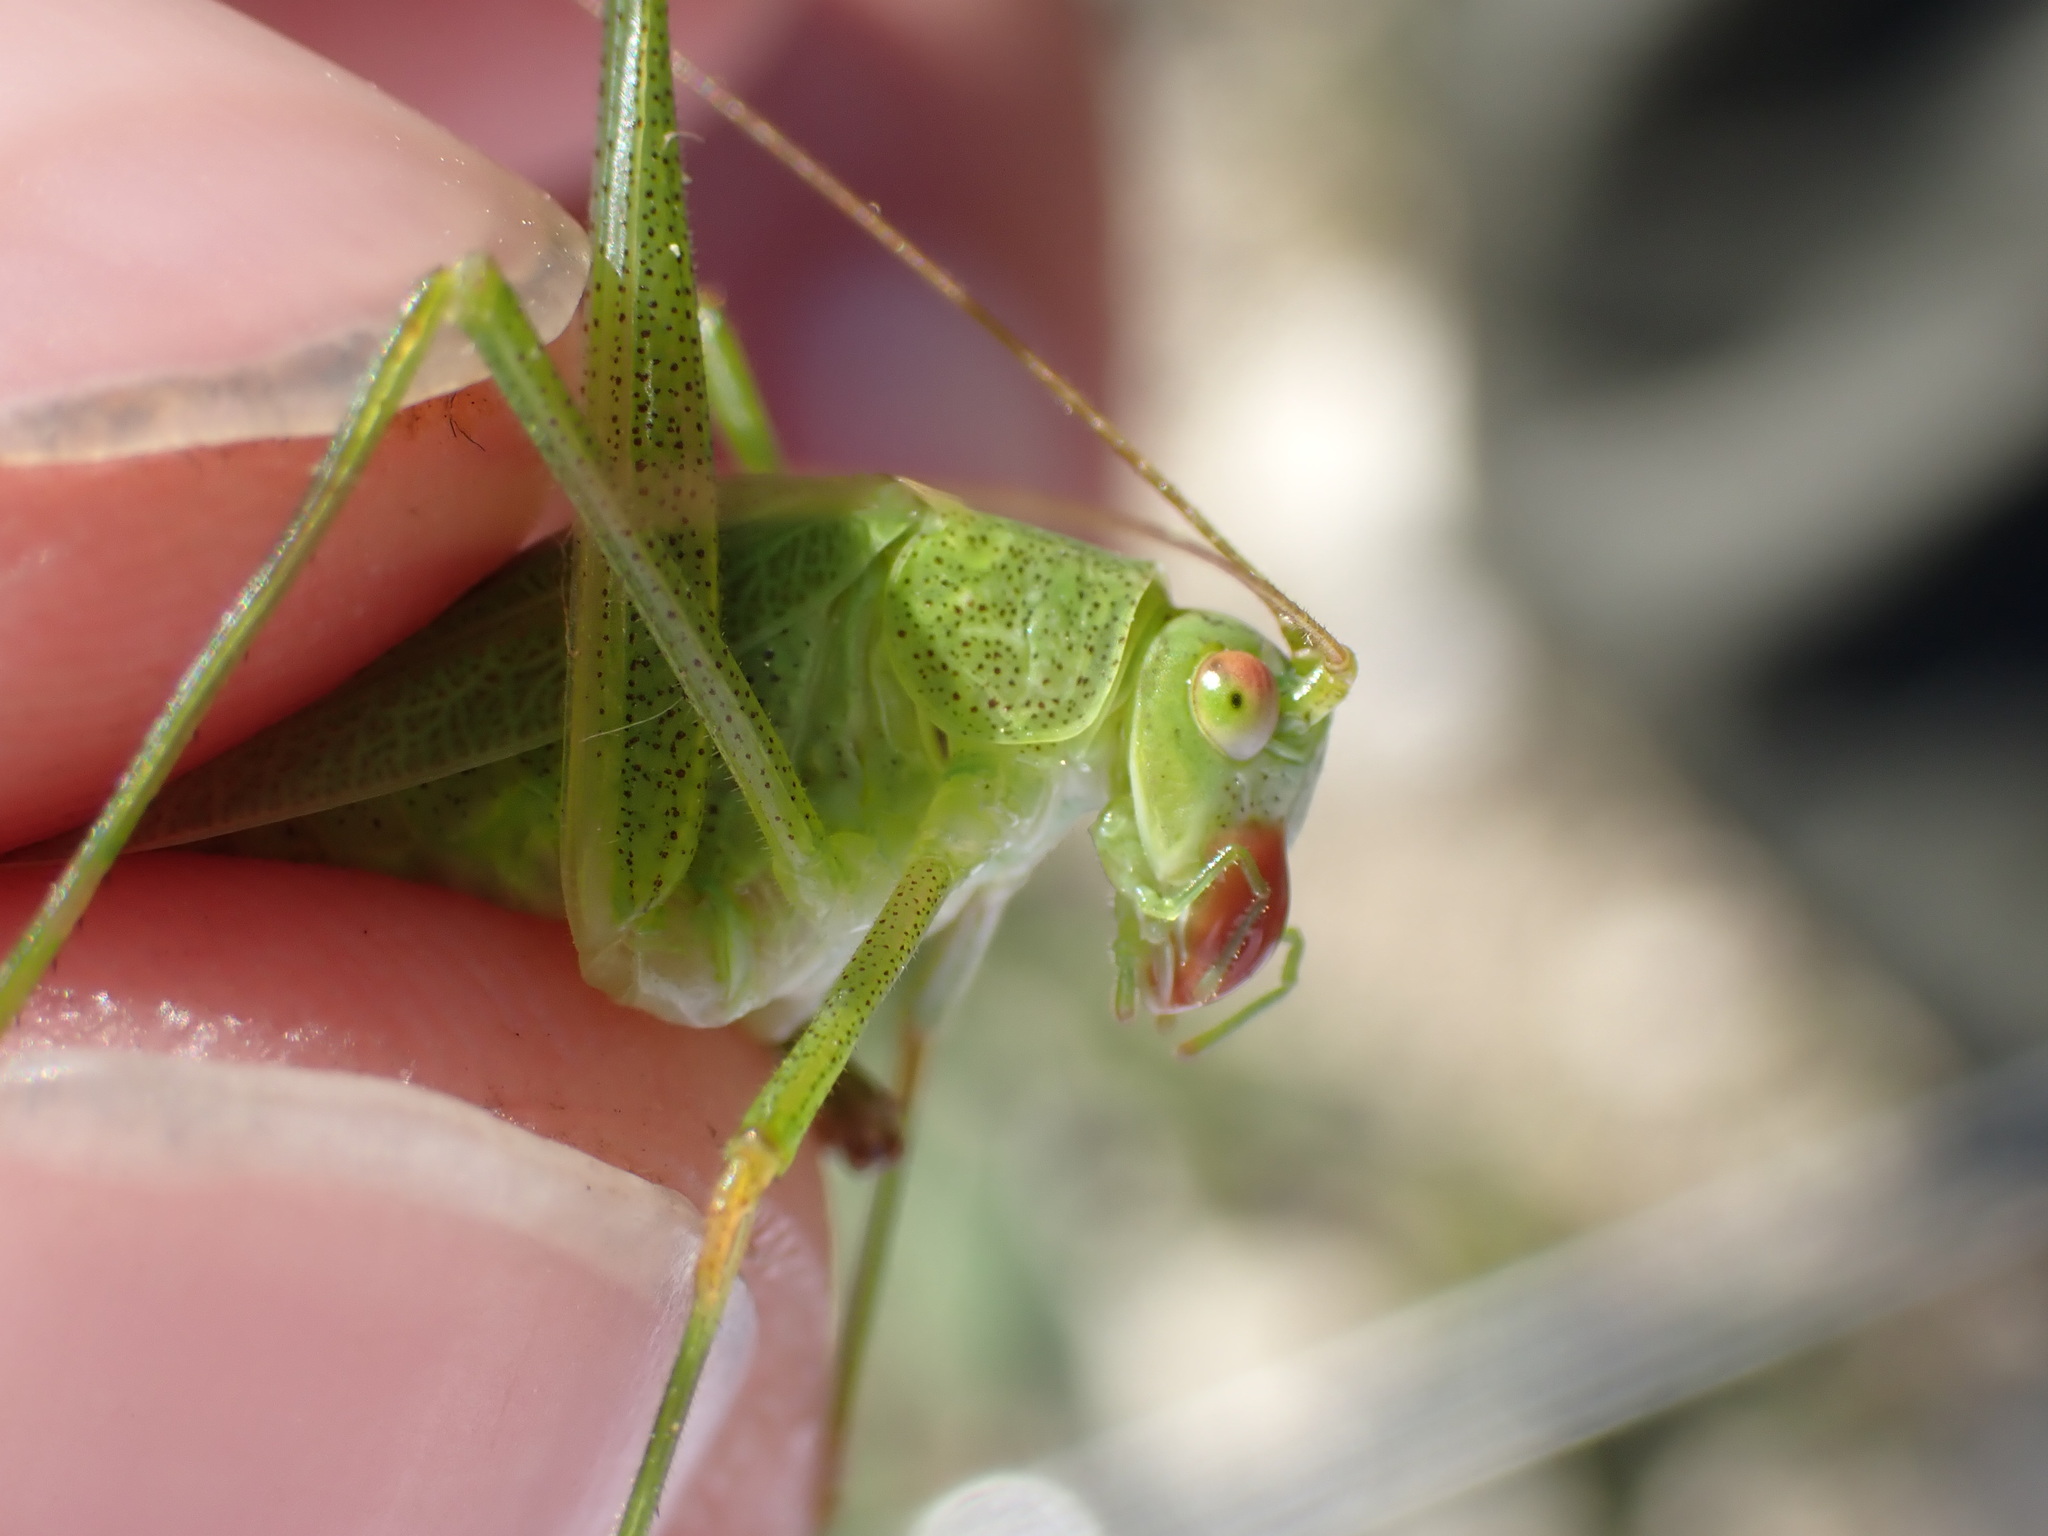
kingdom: Animalia
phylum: Arthropoda
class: Insecta
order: Orthoptera
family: Tettigoniidae
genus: Phaneroptera
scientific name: Phaneroptera falcata
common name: Sickle-bearing bush-cricket
